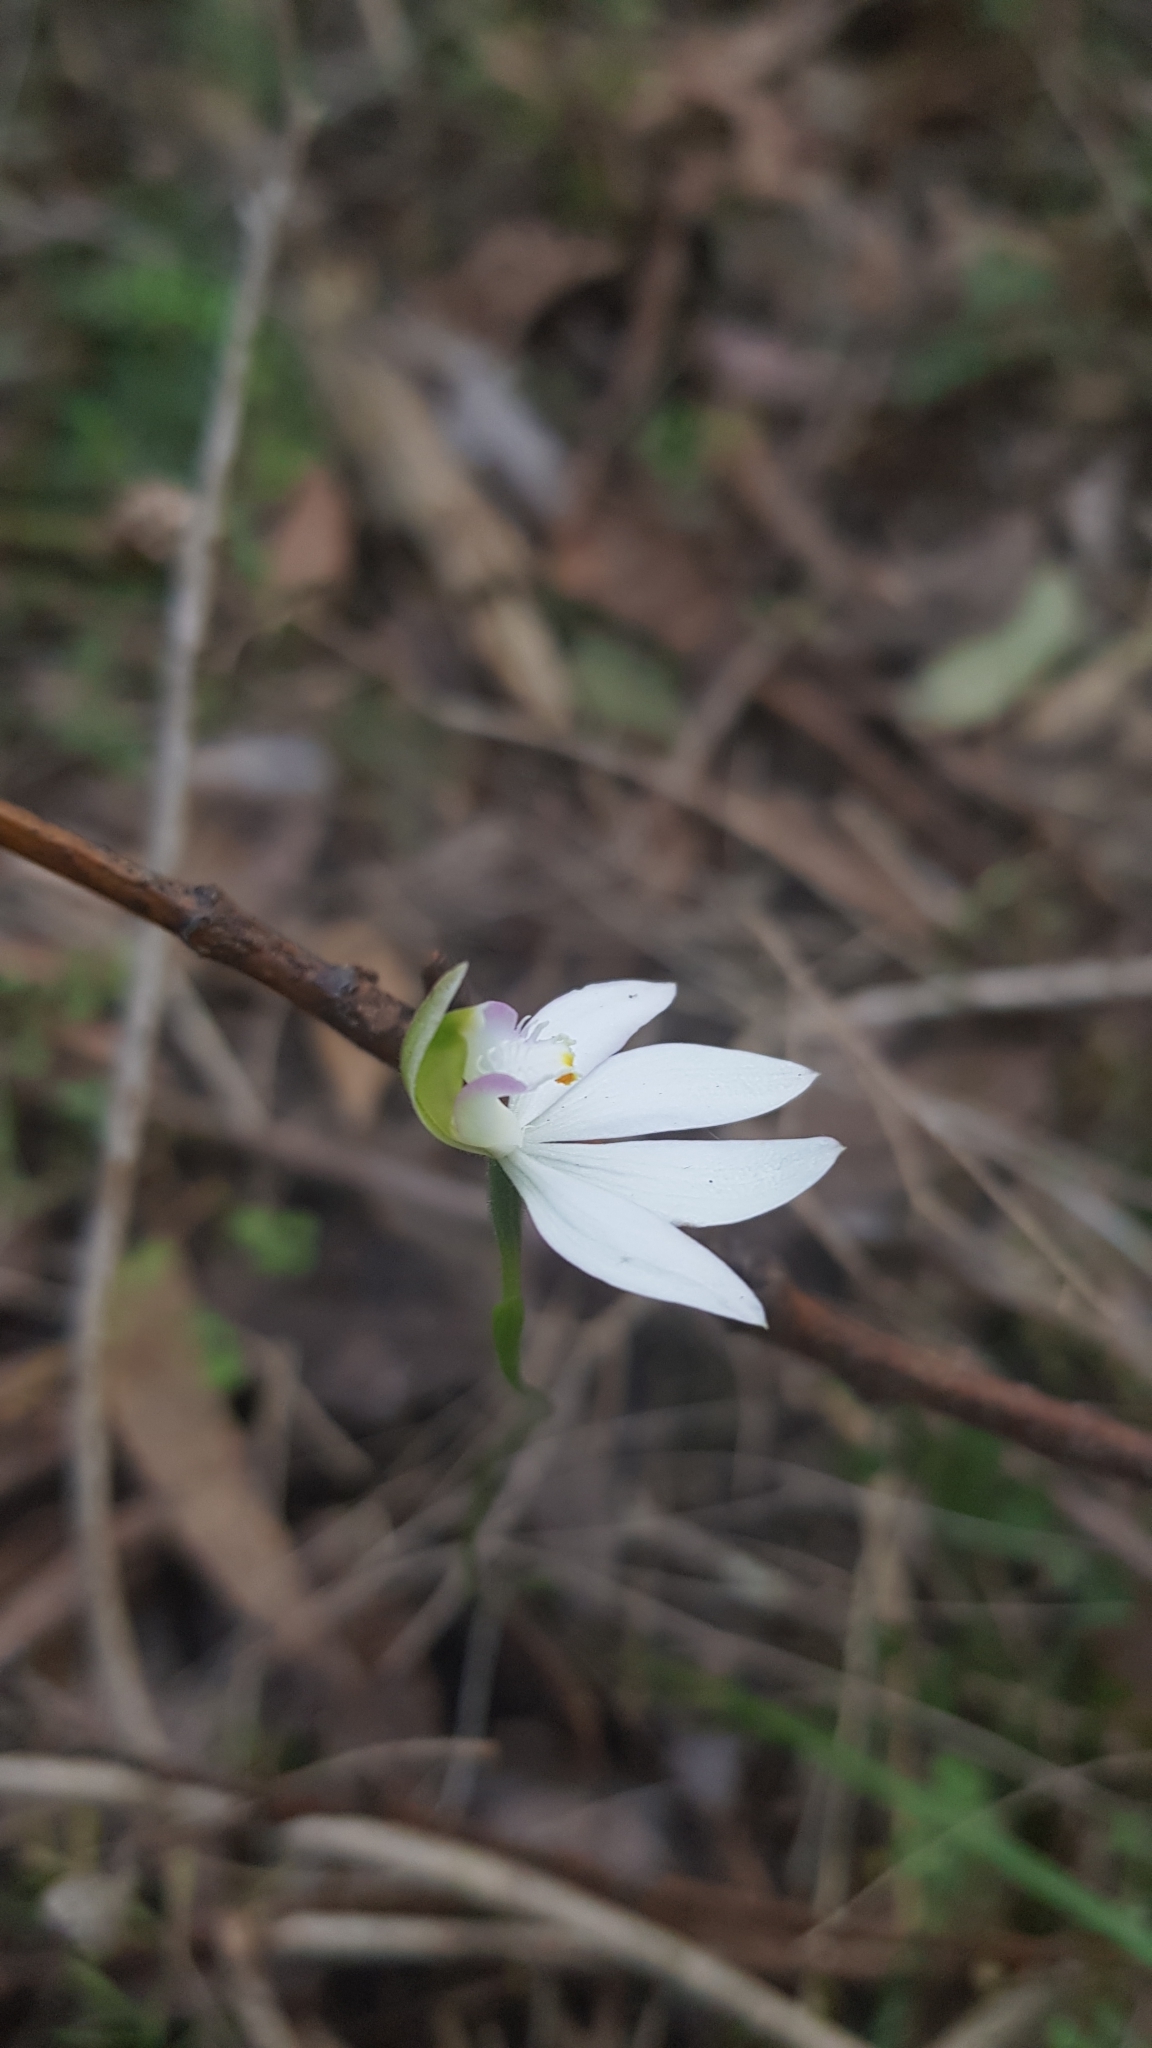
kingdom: Plantae
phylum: Tracheophyta
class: Liliopsida
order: Asparagales
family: Orchidaceae
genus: Caladenia
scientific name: Caladenia catenata
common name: White caladenia
